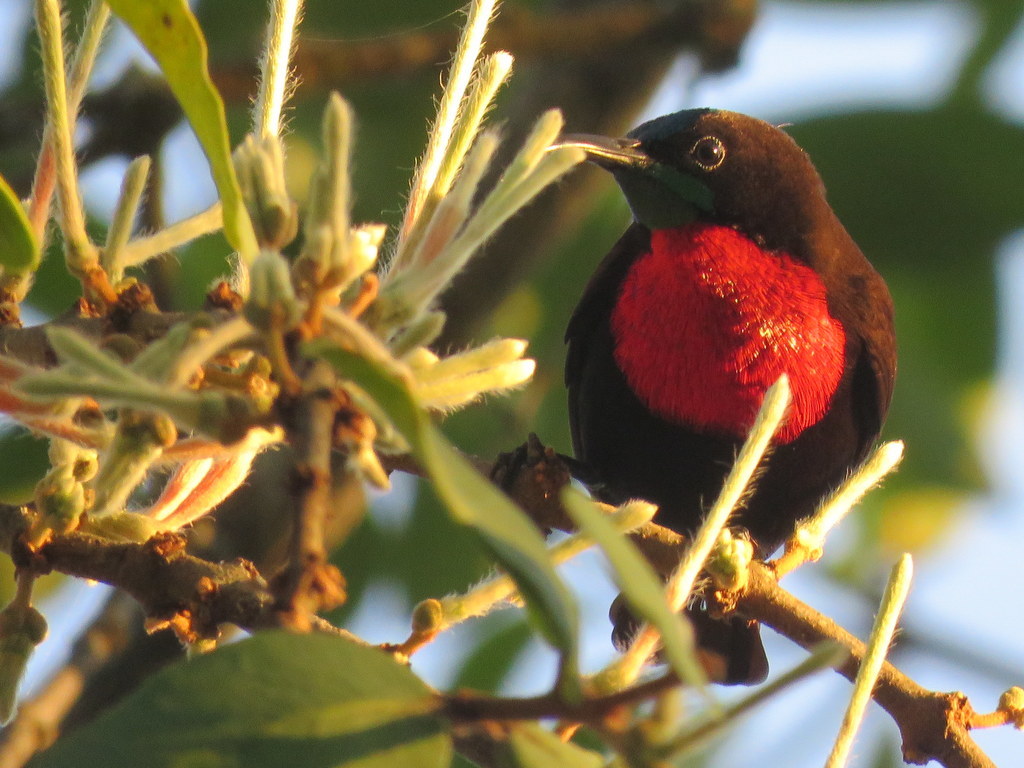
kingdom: Animalia
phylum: Chordata
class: Aves
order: Passeriformes
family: Nectariniidae
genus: Chalcomitra
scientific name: Chalcomitra senegalensis
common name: Scarlet-chested sunbird
